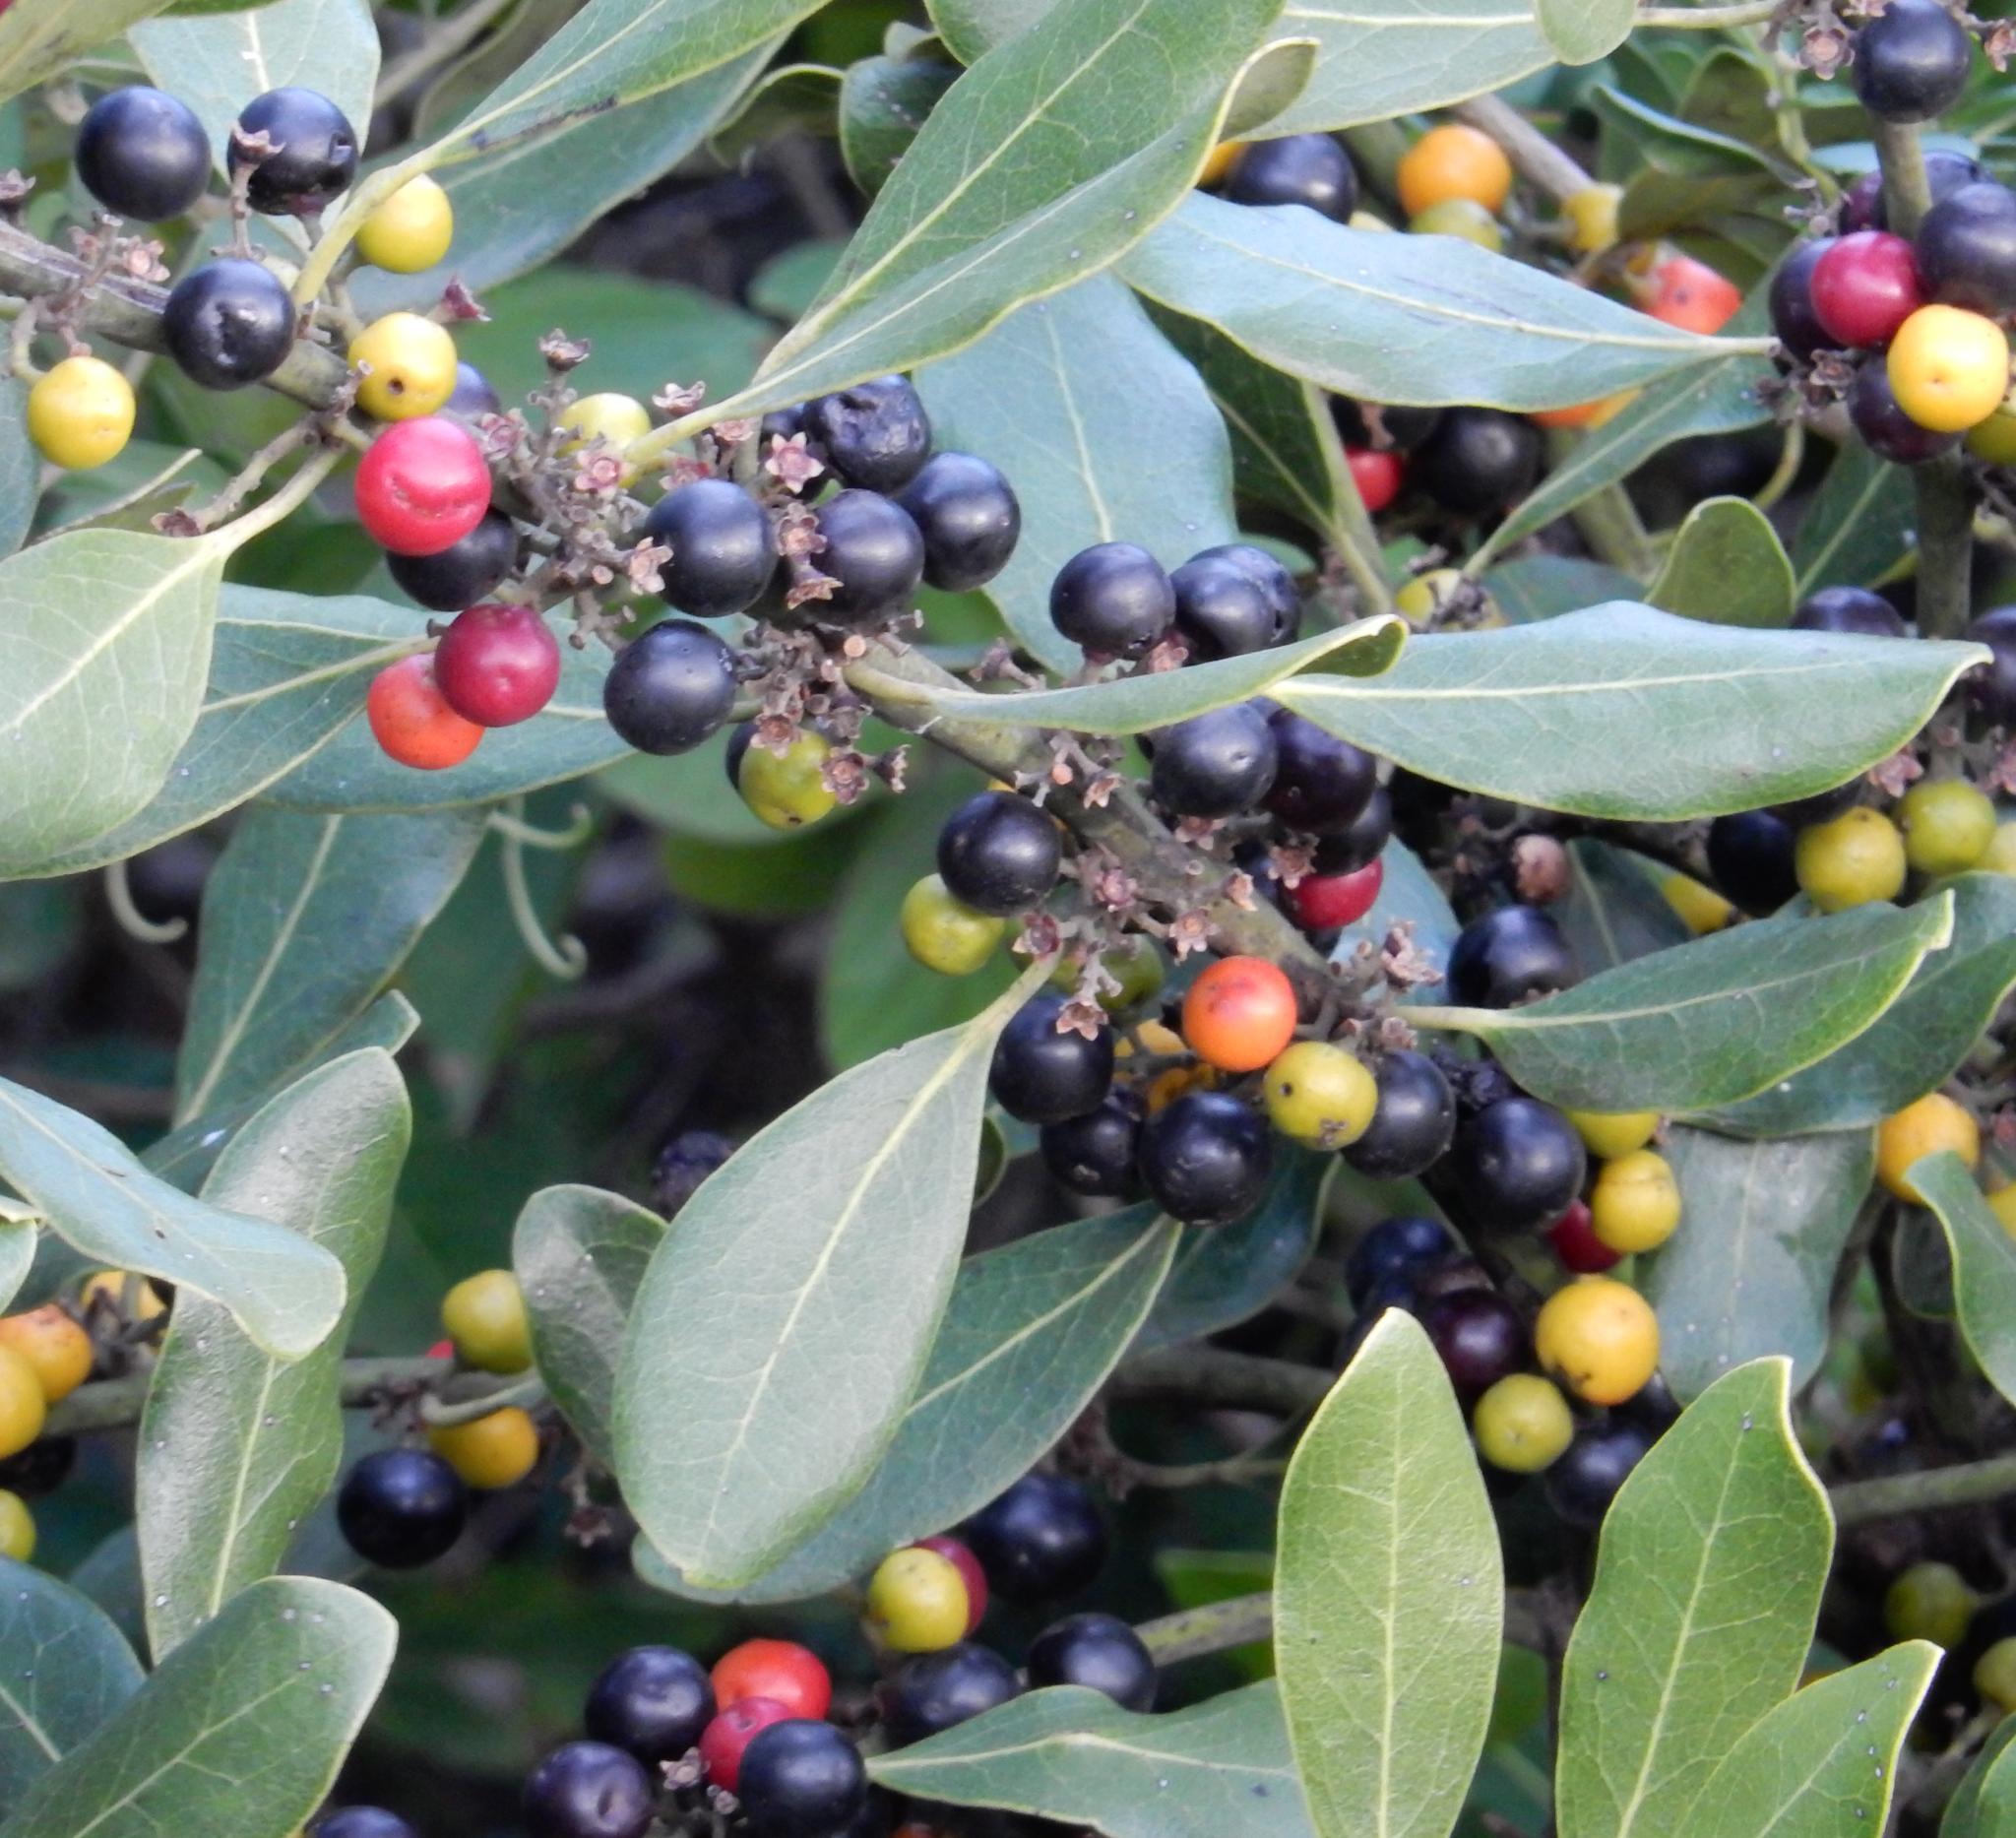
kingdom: Plantae
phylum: Tracheophyta
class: Magnoliopsida
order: Ericales
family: Ebenaceae
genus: Euclea
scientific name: Euclea natalensis
